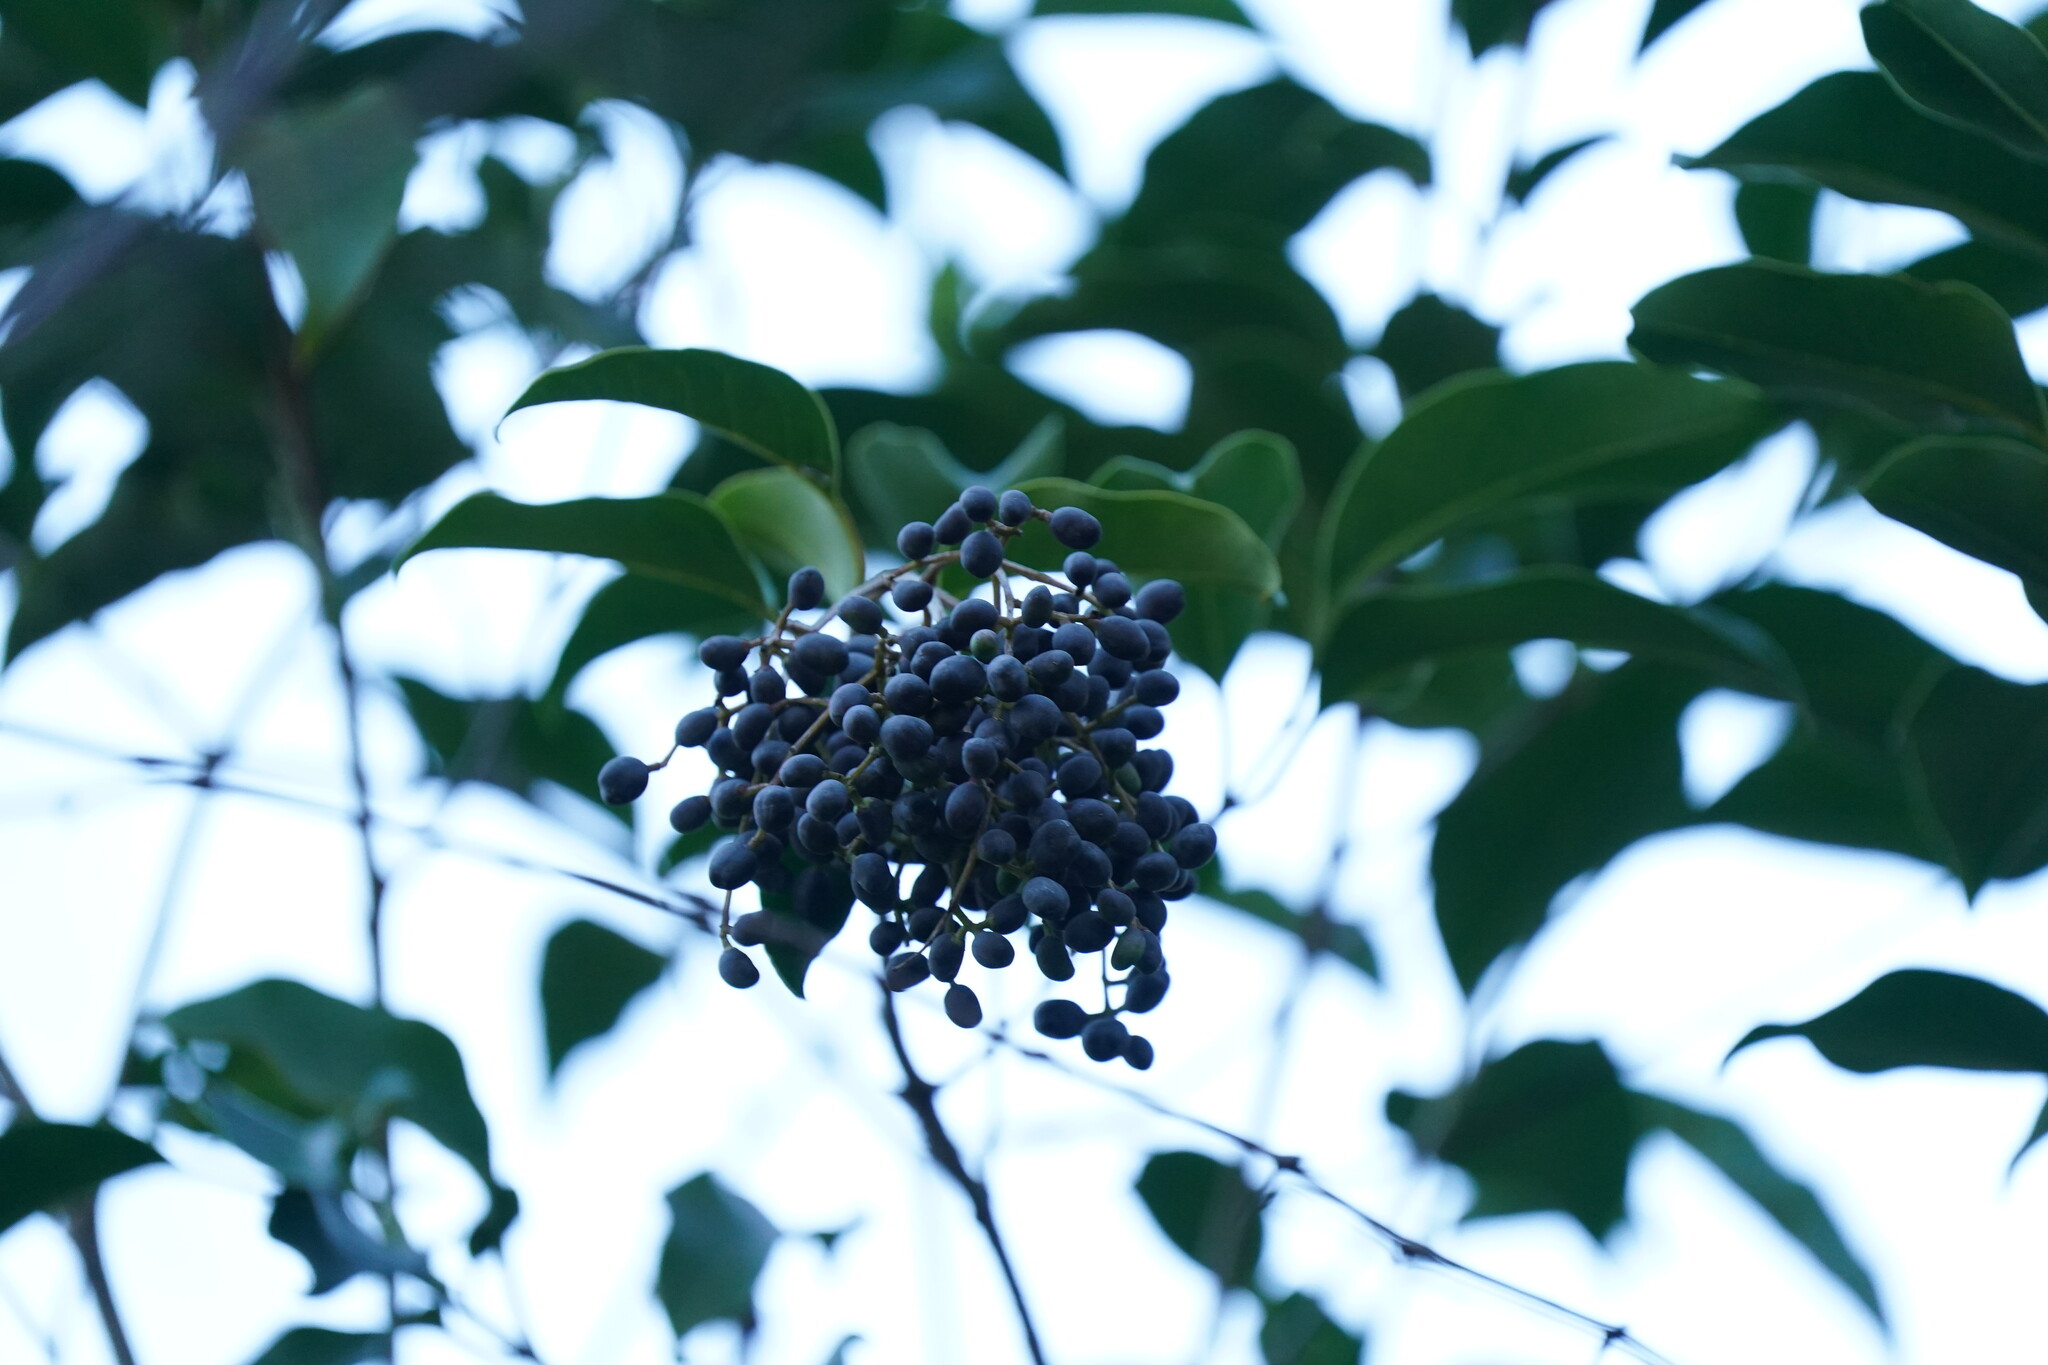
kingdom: Plantae
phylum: Tracheophyta
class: Magnoliopsida
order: Lamiales
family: Oleaceae
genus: Ligustrum
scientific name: Ligustrum lucidum
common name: Glossy privet
